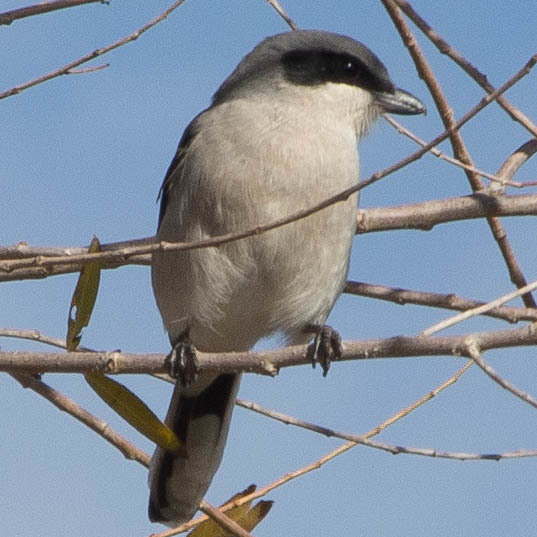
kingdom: Animalia
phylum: Chordata
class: Aves
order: Passeriformes
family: Laniidae
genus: Lanius
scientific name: Lanius ludovicianus
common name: Loggerhead shrike
